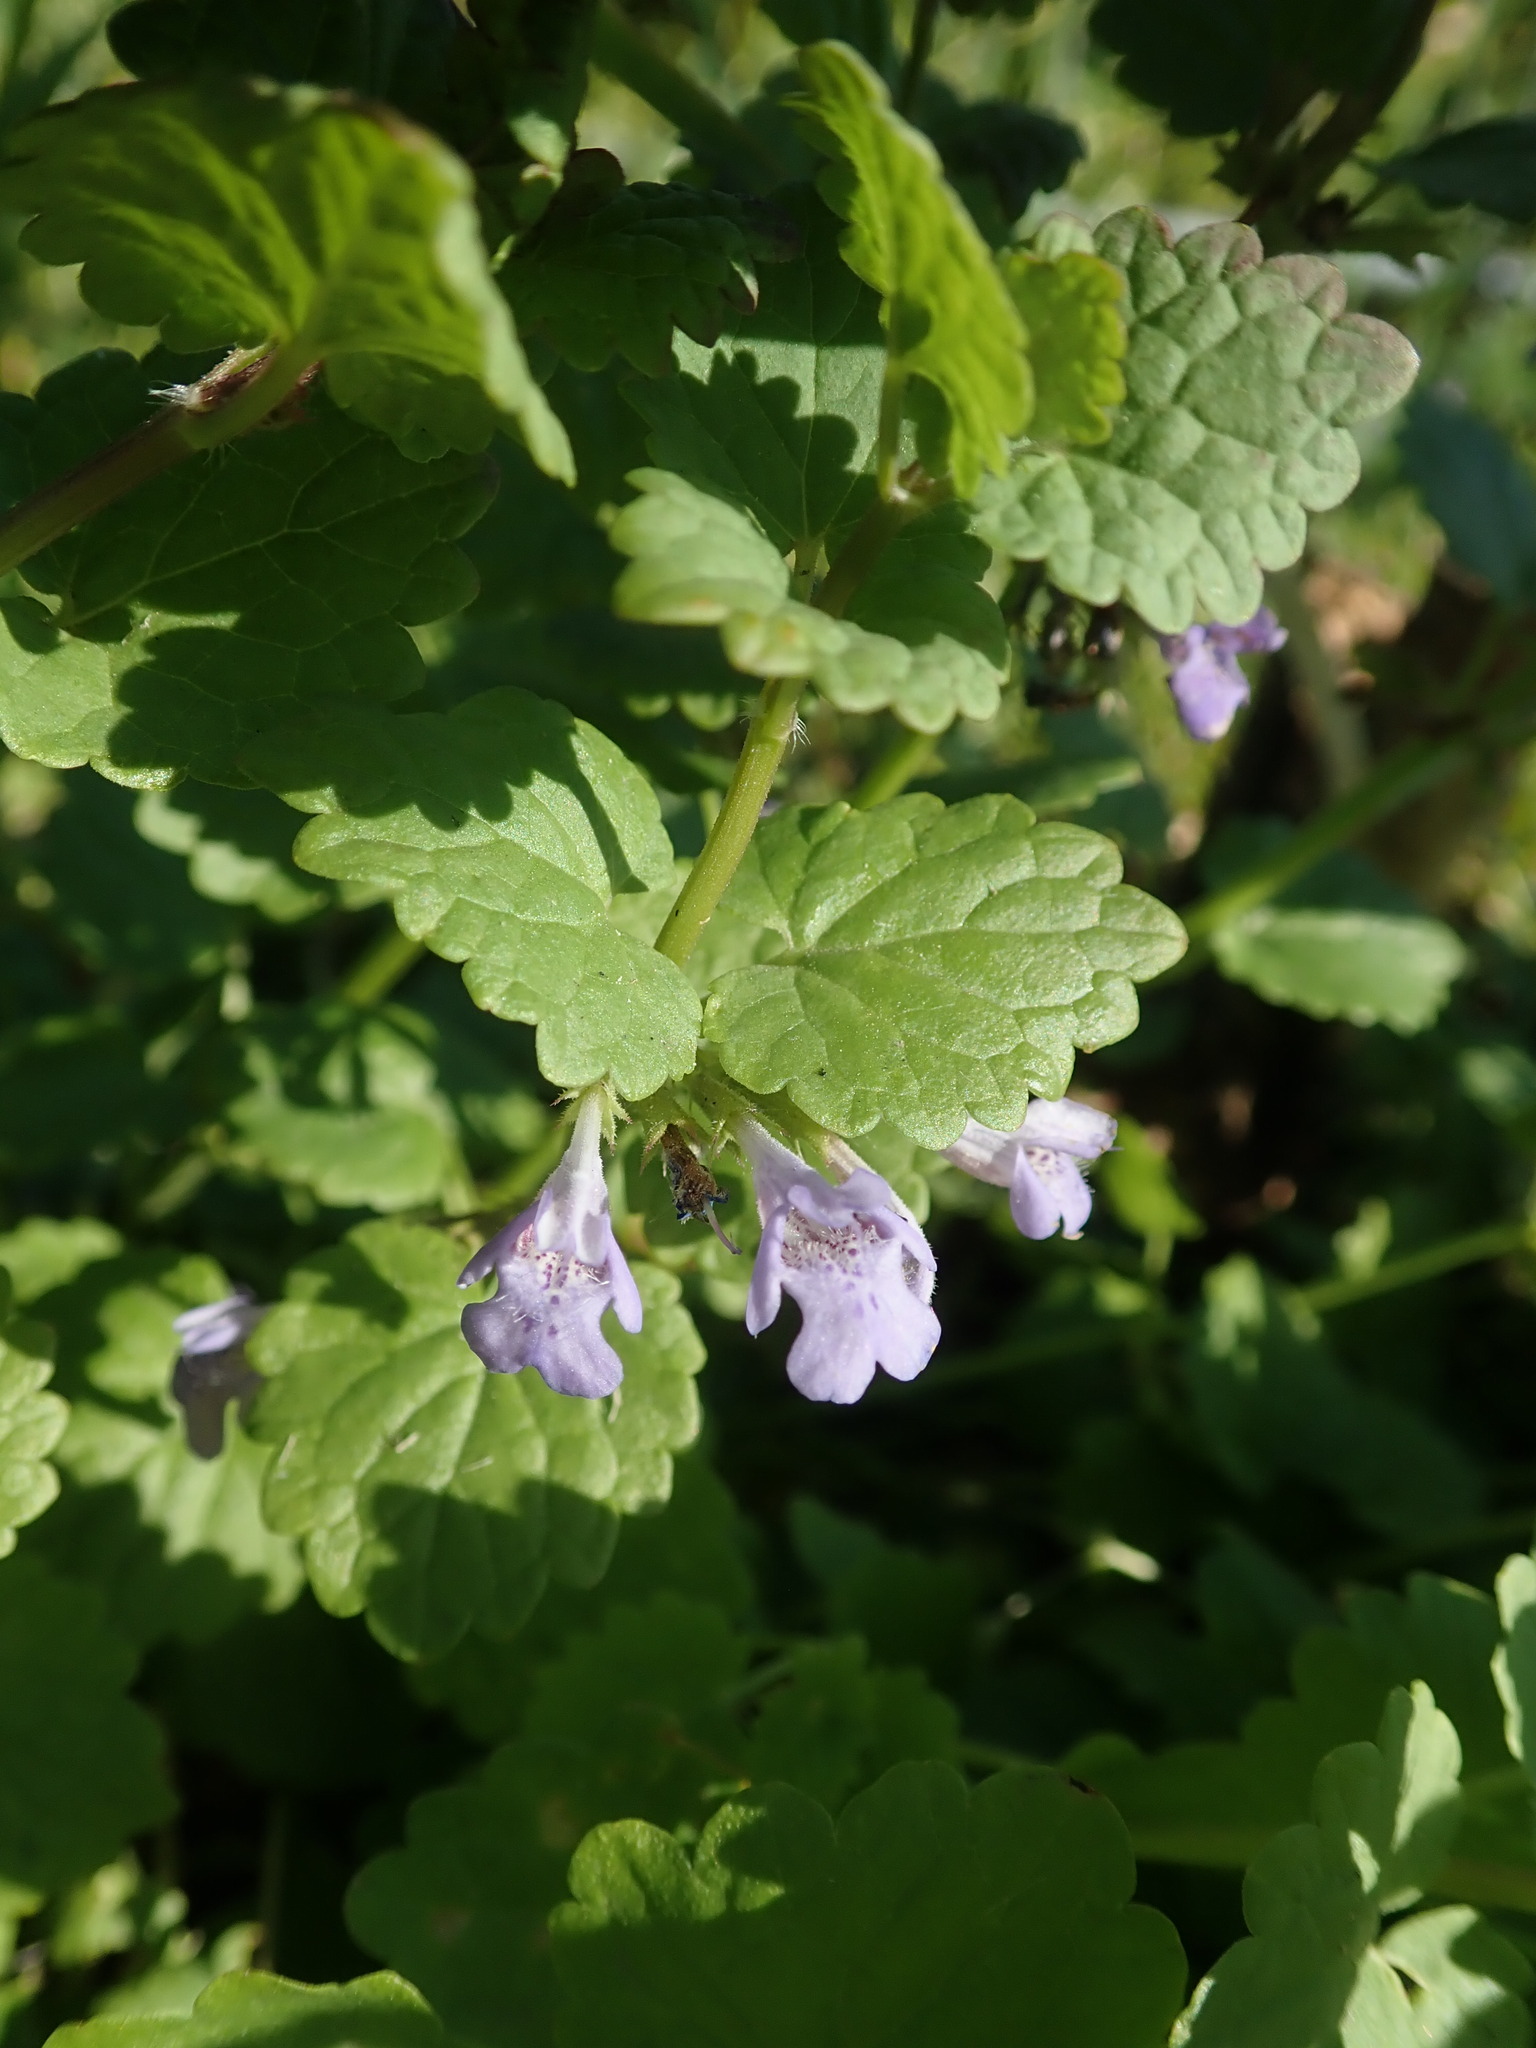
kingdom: Plantae
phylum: Tracheophyta
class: Magnoliopsida
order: Lamiales
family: Lamiaceae
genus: Glechoma
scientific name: Glechoma hederacea
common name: Ground ivy
